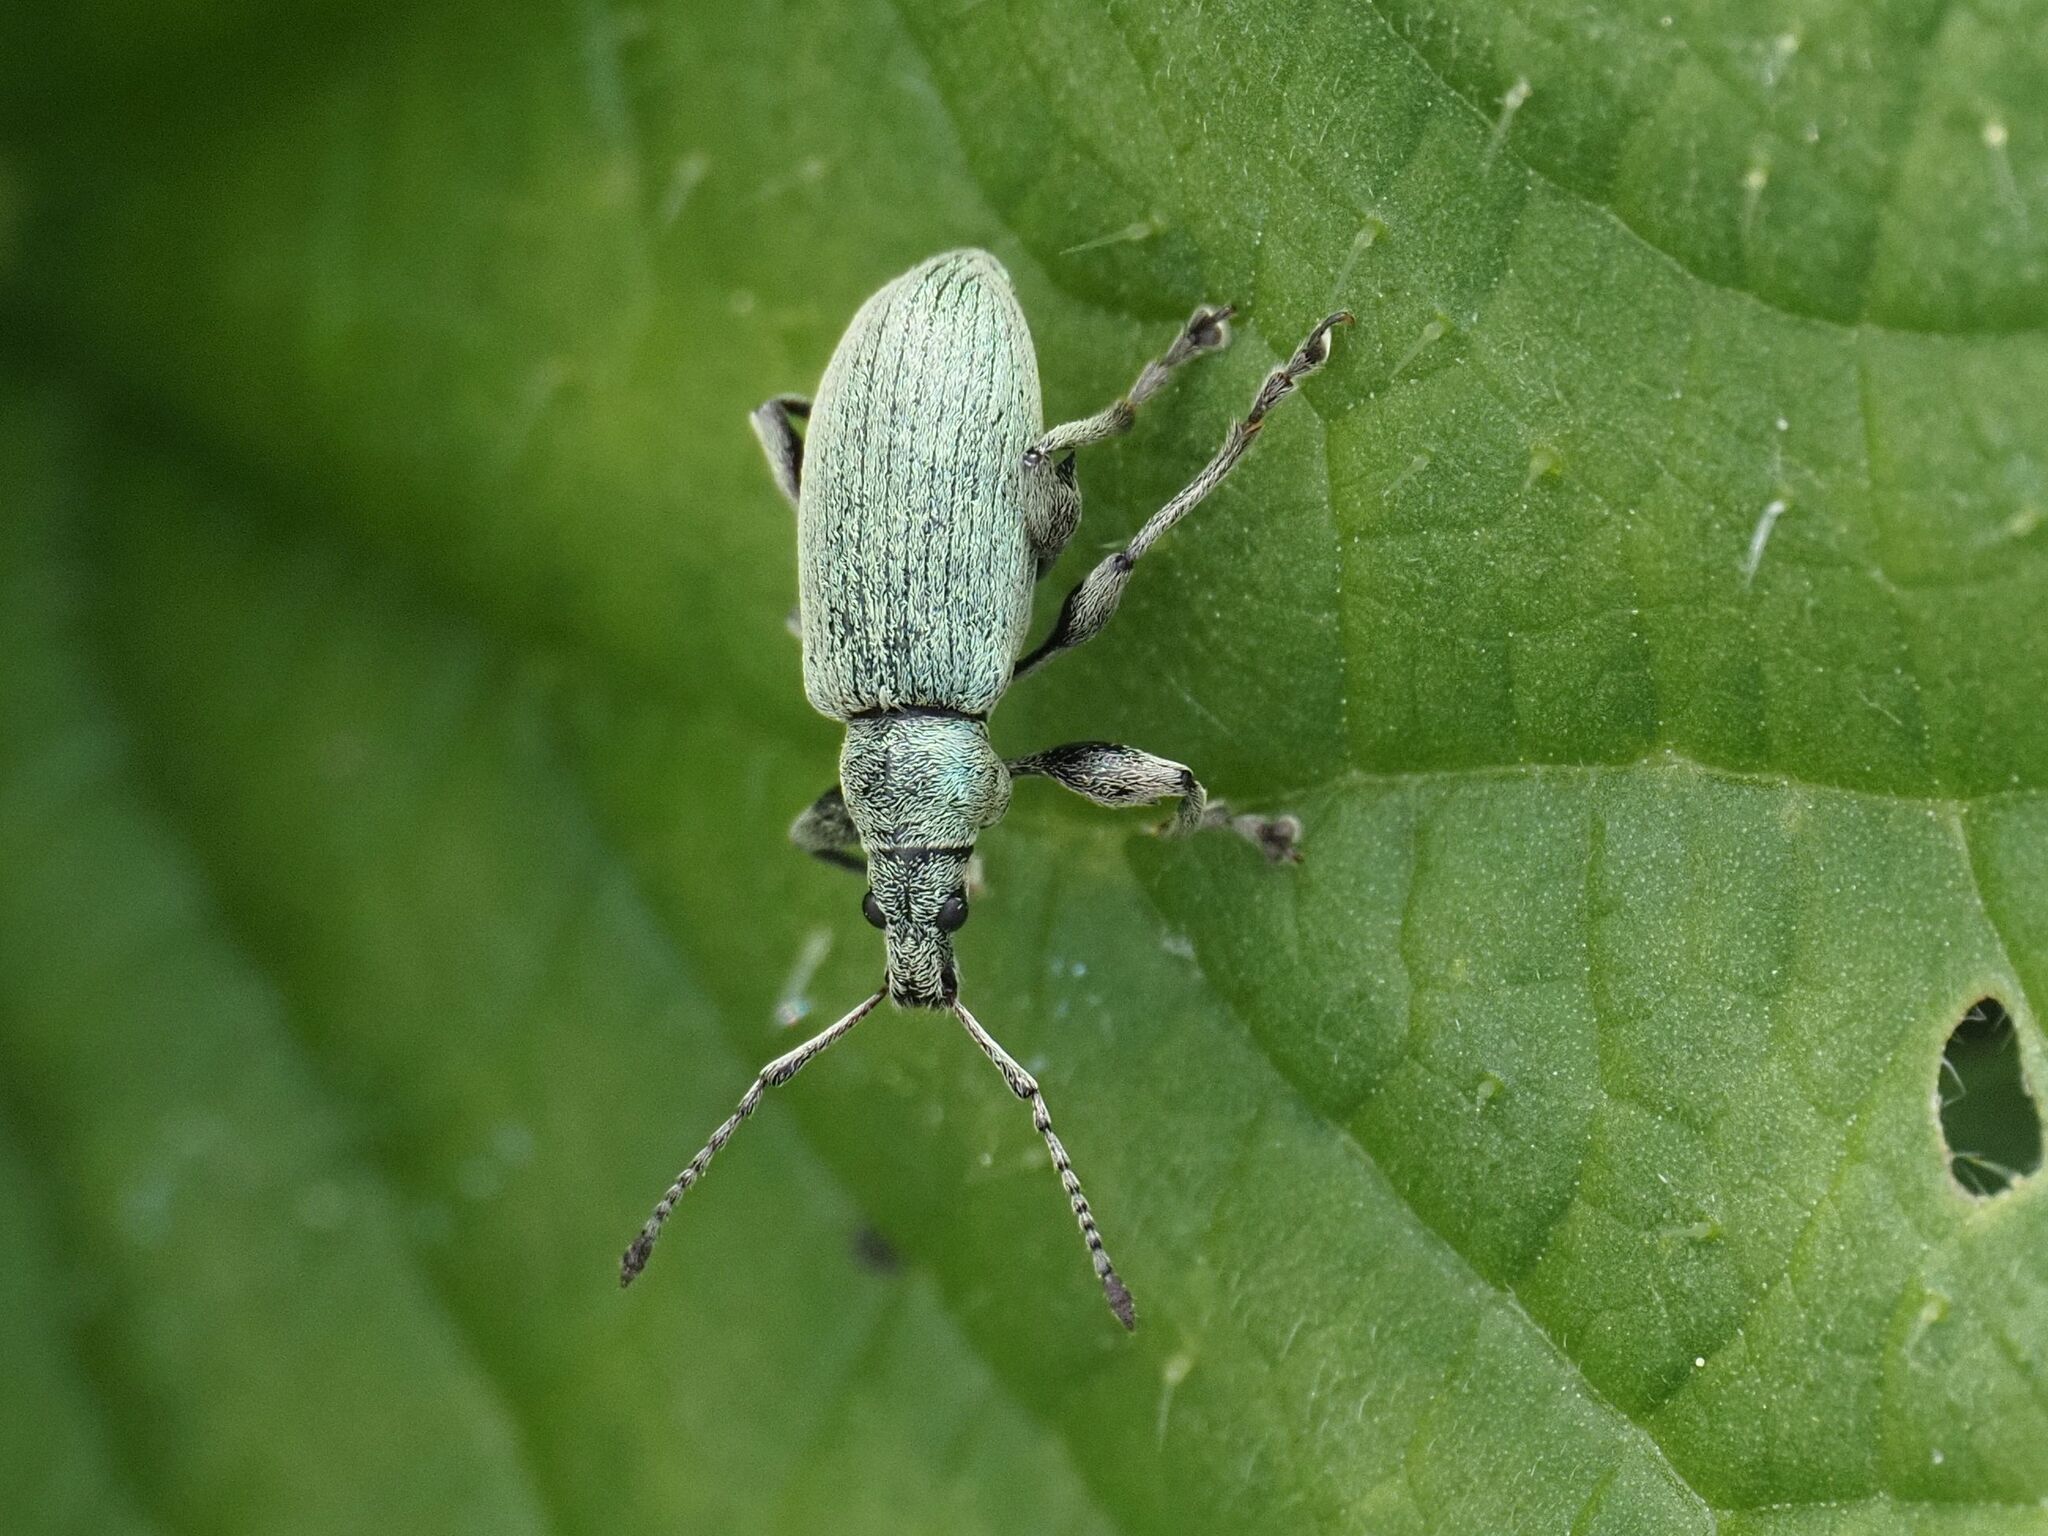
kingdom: Animalia
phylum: Arthropoda
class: Insecta
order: Coleoptera
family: Curculionidae
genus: Phyllobius
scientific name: Phyllobius pomaceus
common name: Green nettle weevil
